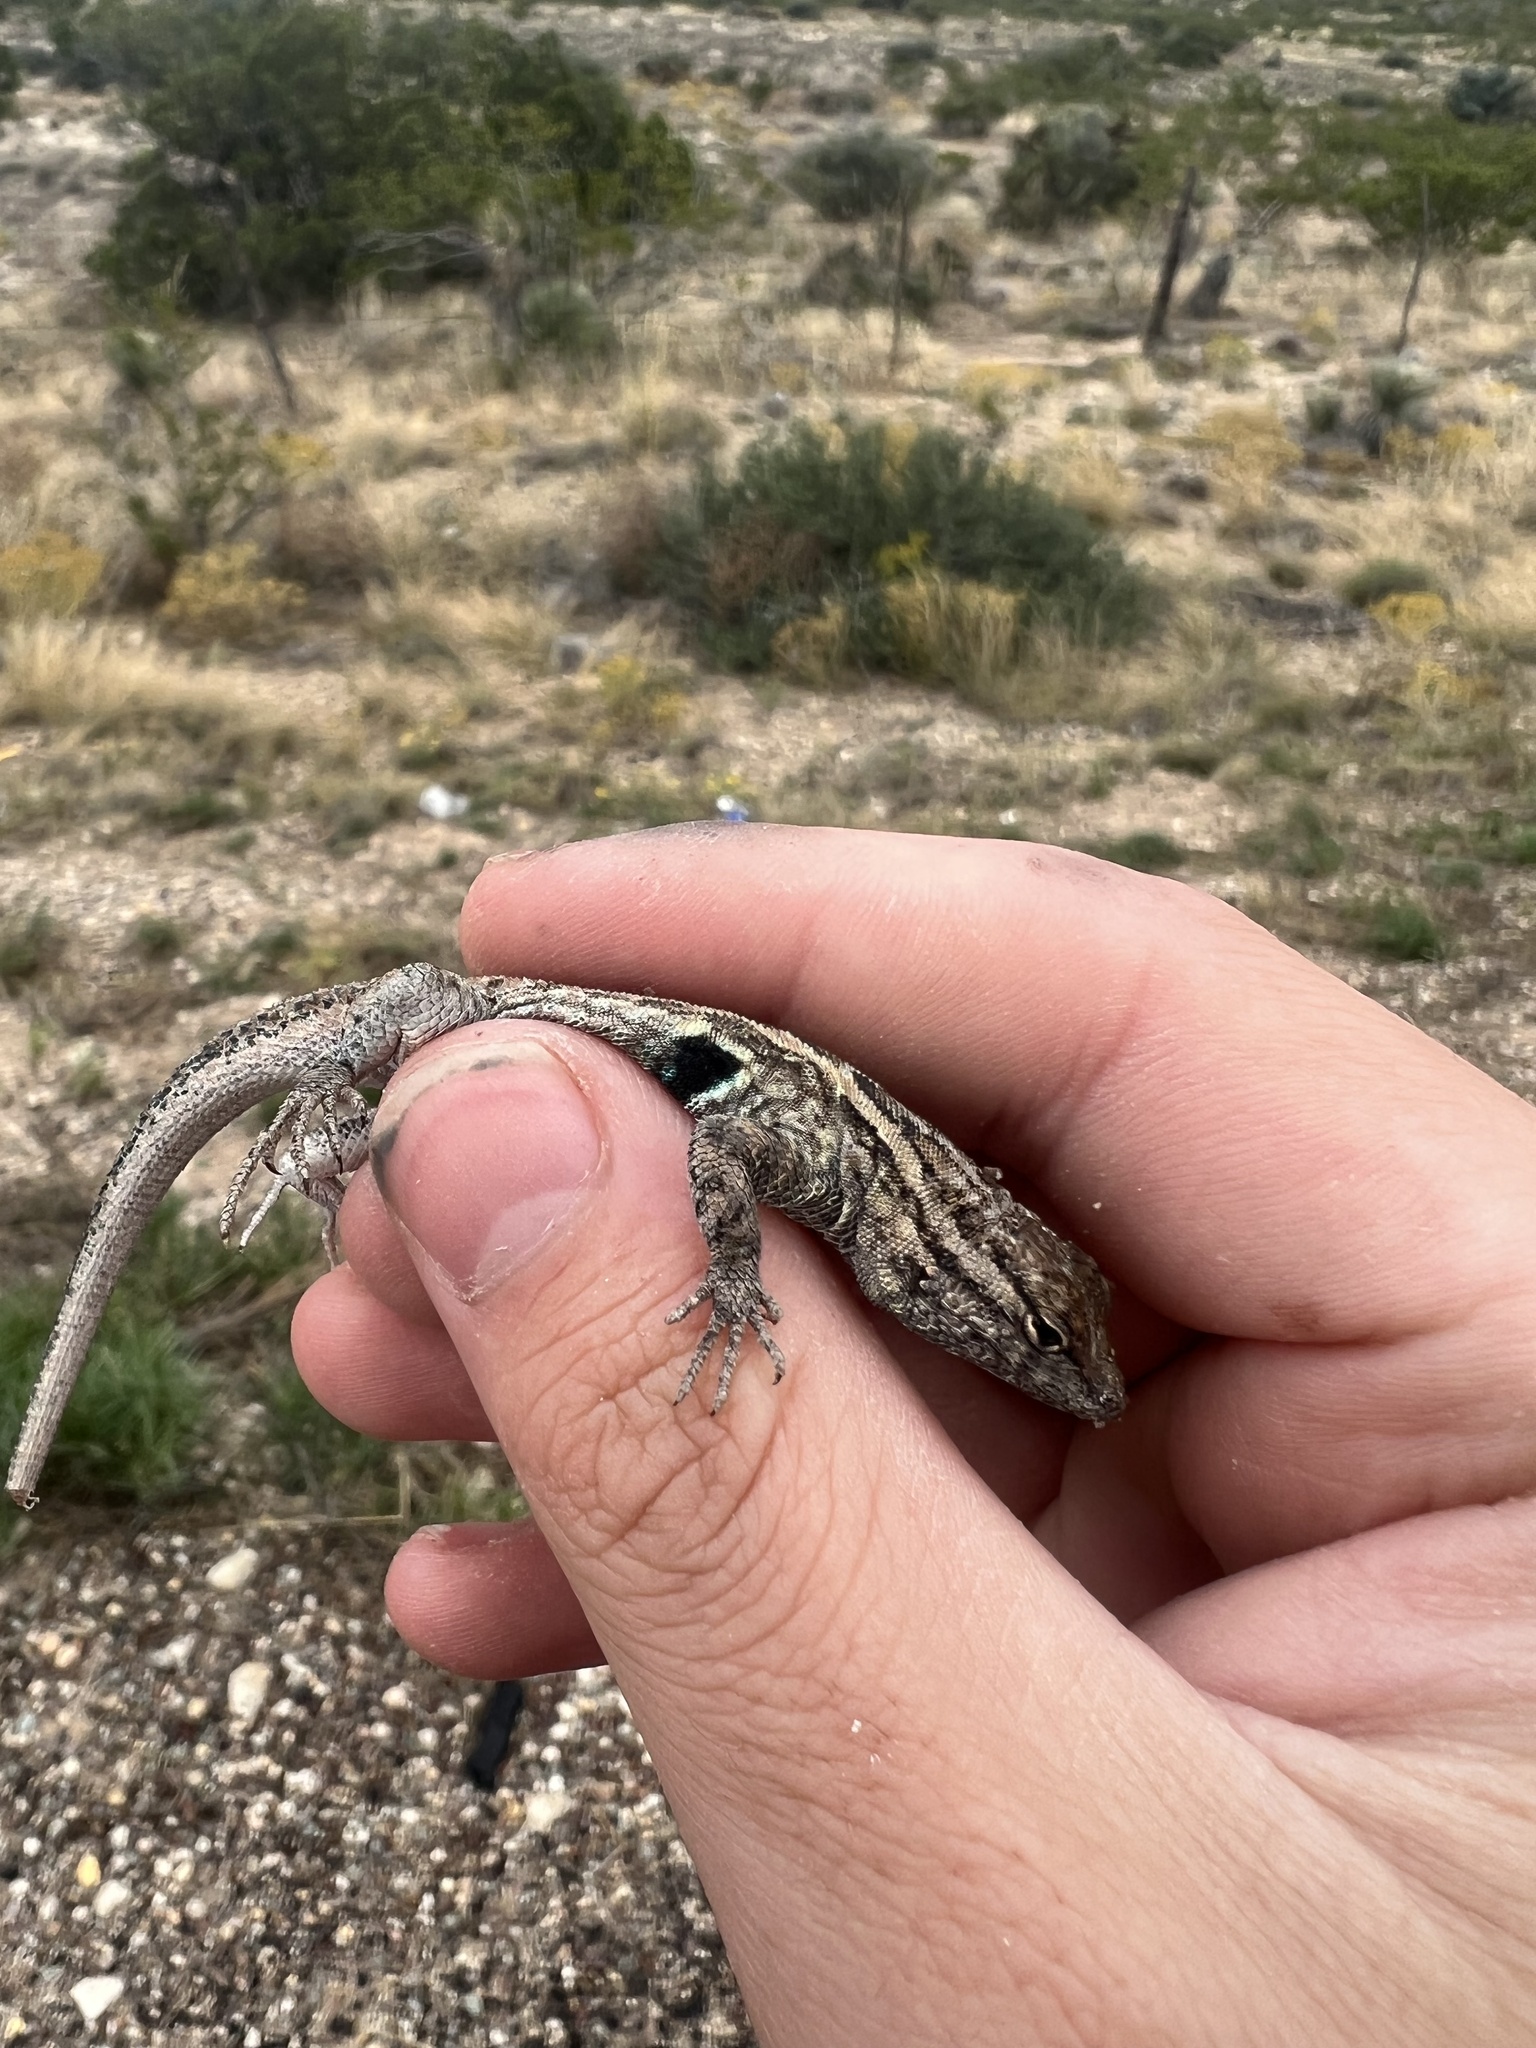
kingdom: Animalia
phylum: Chordata
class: Squamata
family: Phrynosomatidae
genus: Uta
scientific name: Uta stansburiana
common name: Side-blotched lizard
